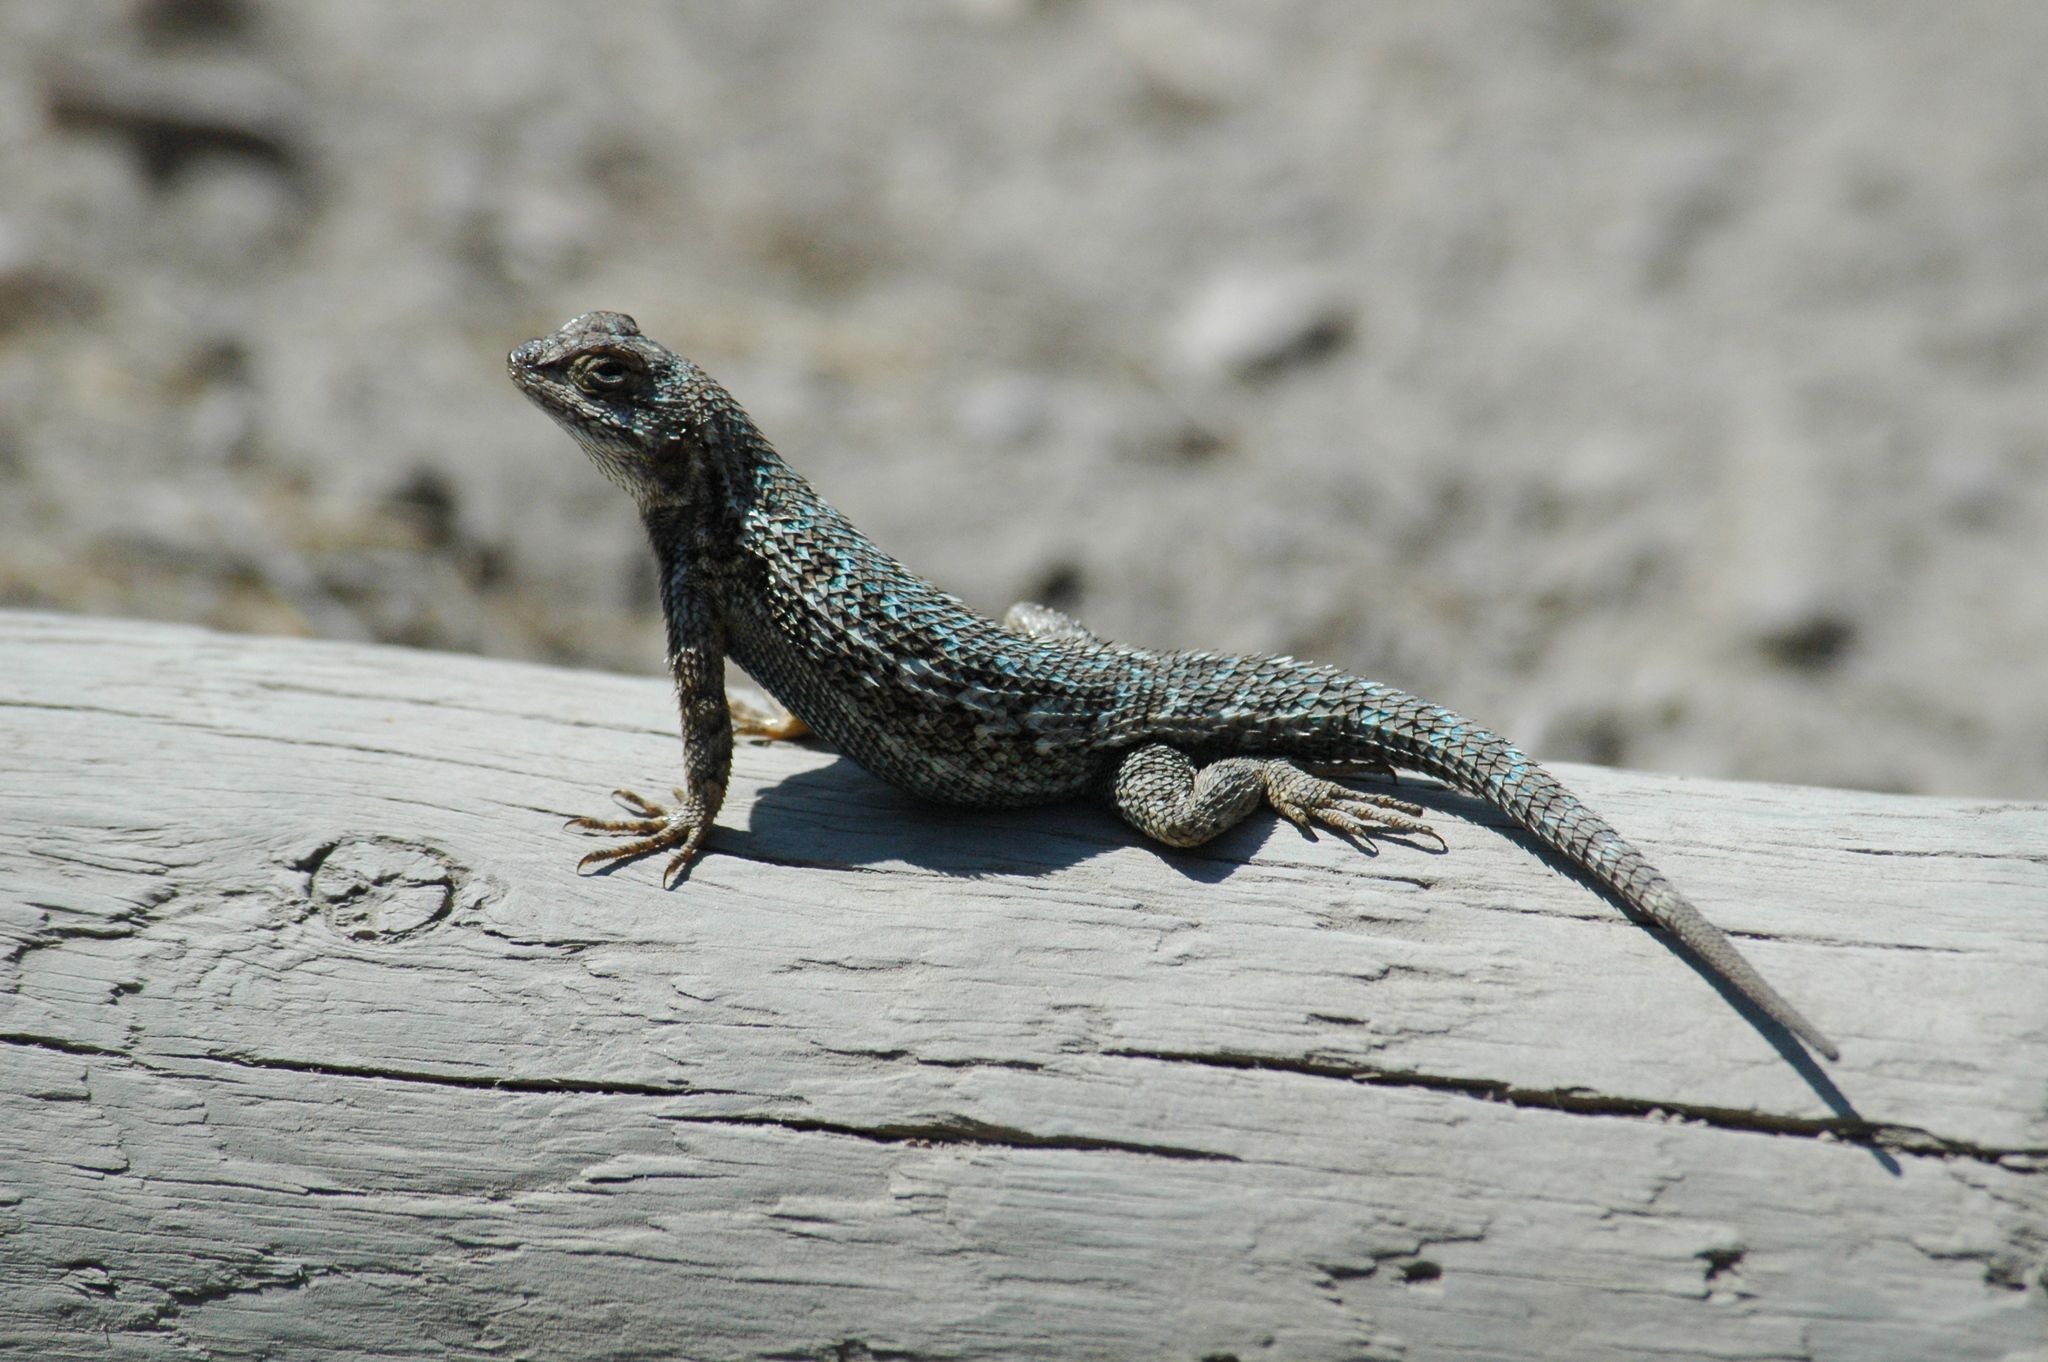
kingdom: Animalia
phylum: Chordata
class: Squamata
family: Phrynosomatidae
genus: Sceloporus
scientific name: Sceloporus occidentalis
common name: Western fence lizard
